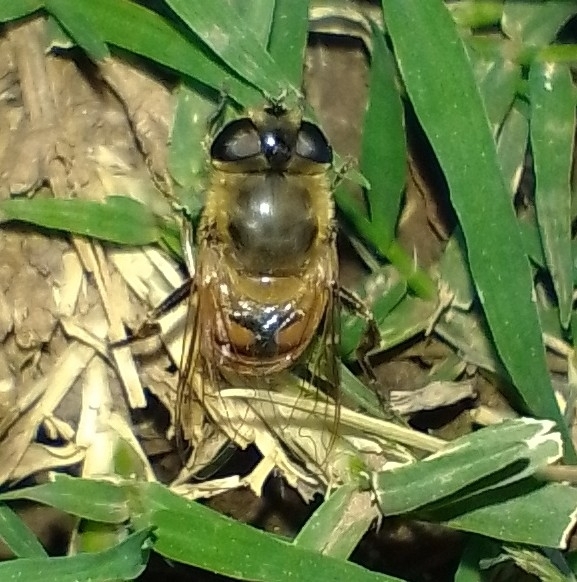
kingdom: Animalia
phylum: Arthropoda
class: Insecta
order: Diptera
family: Syrphidae
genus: Eristalis
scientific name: Eristalis tenax
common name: Drone fly
